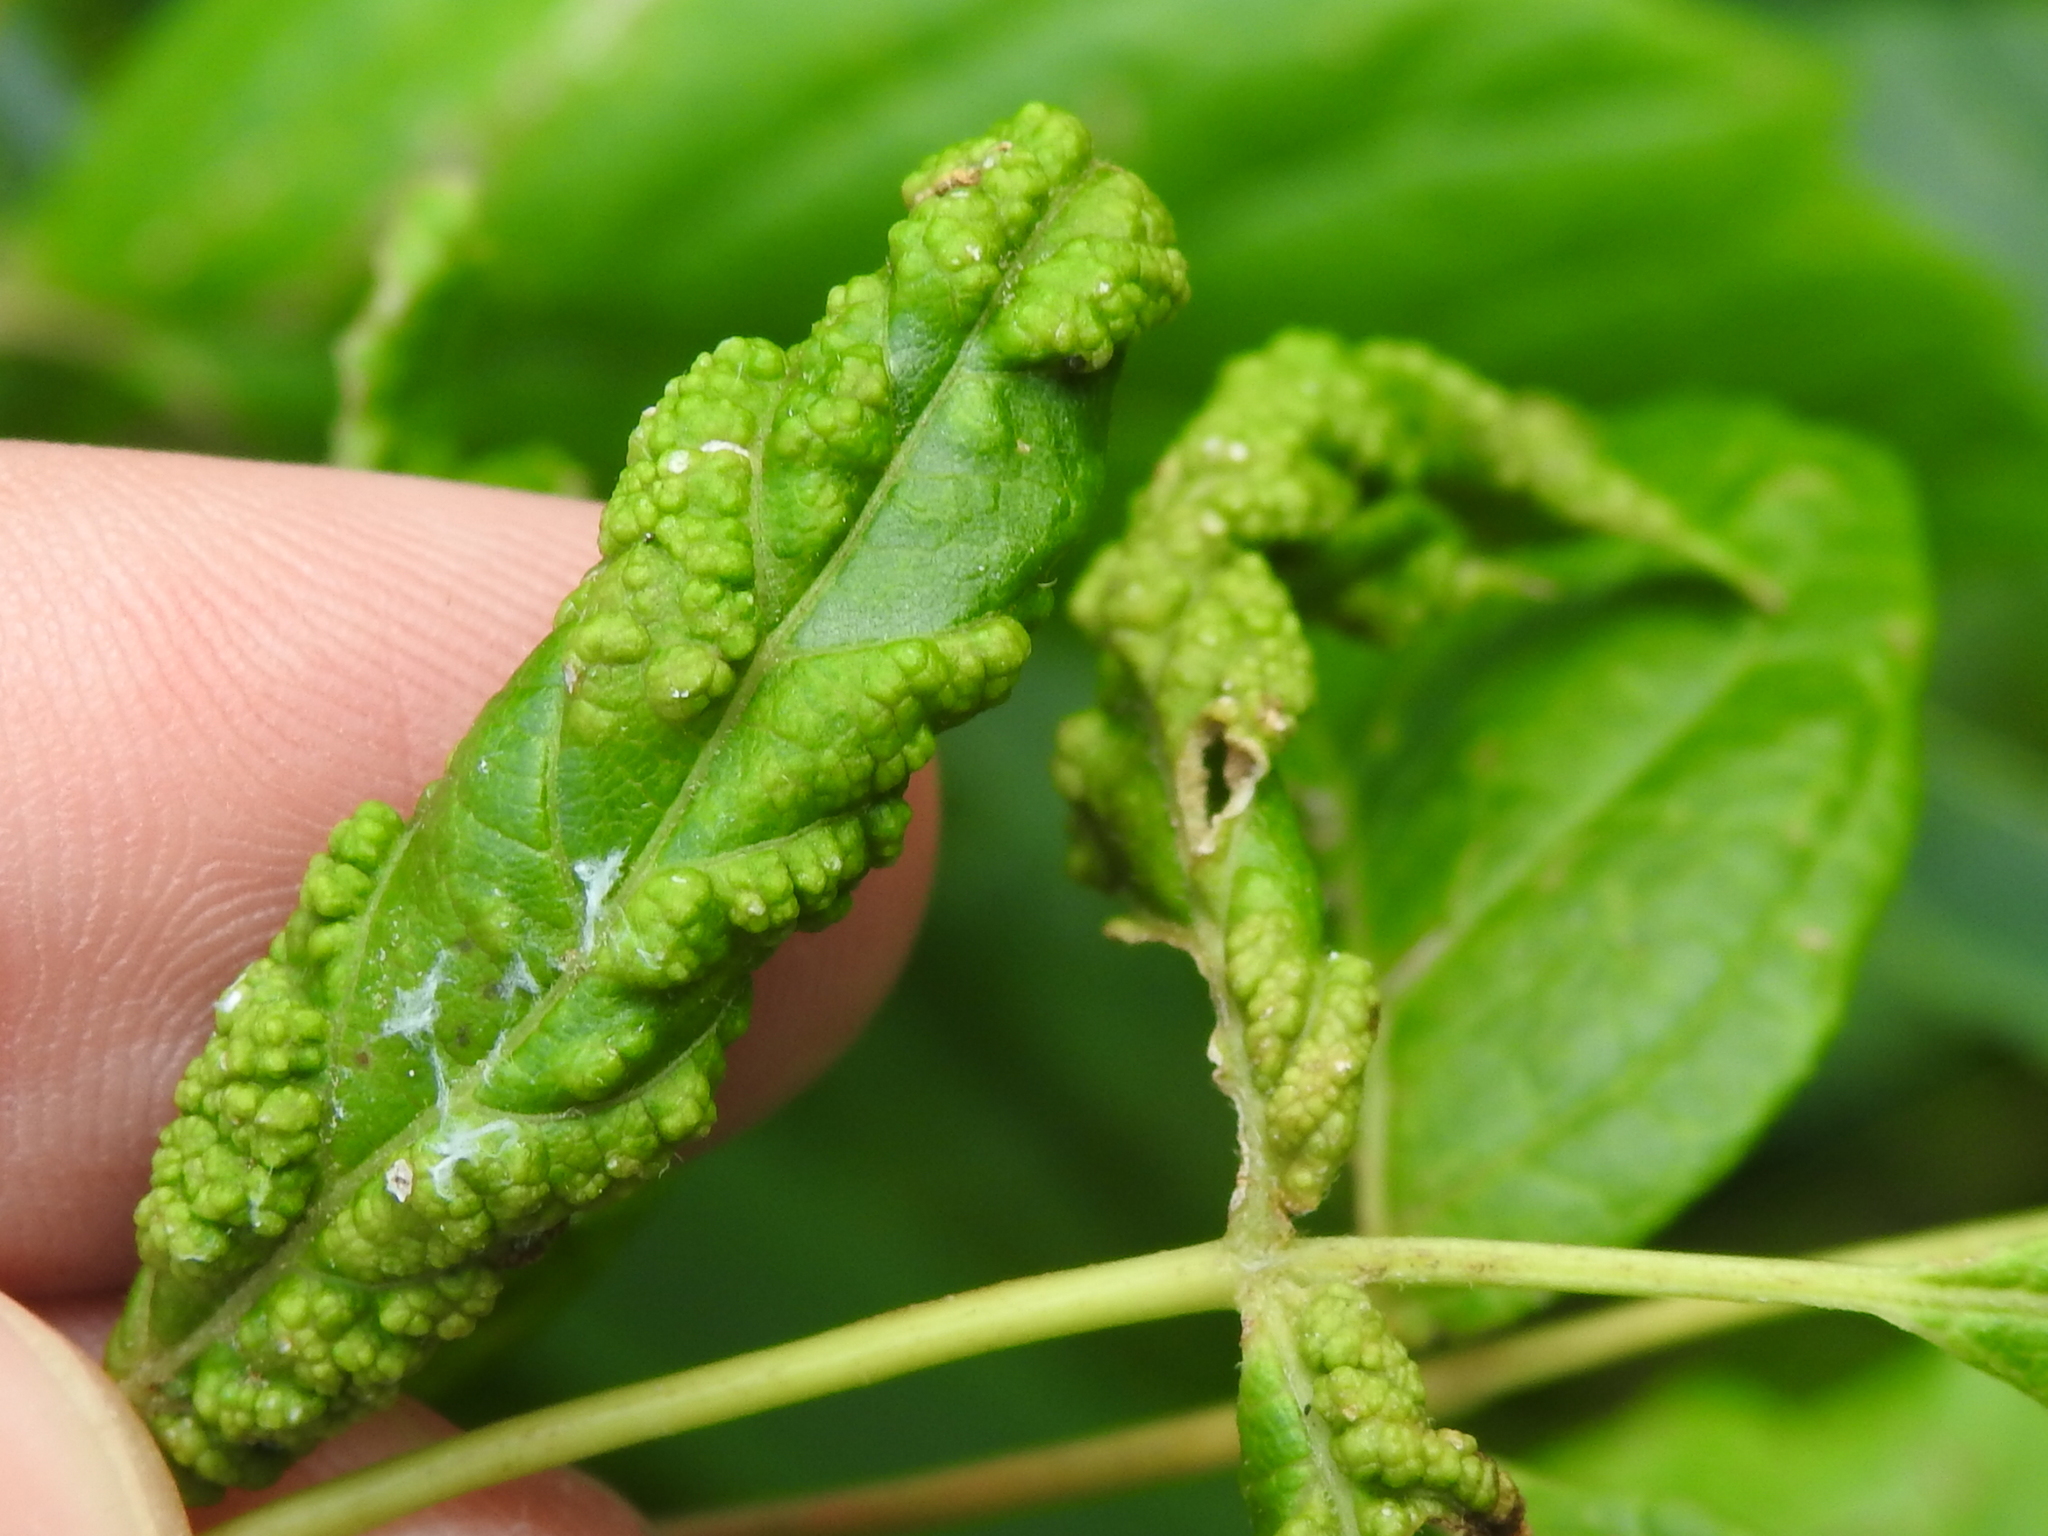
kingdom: Animalia
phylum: Arthropoda
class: Arachnida
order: Trombidiformes
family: Eriophyidae
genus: Aceria
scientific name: Aceria
